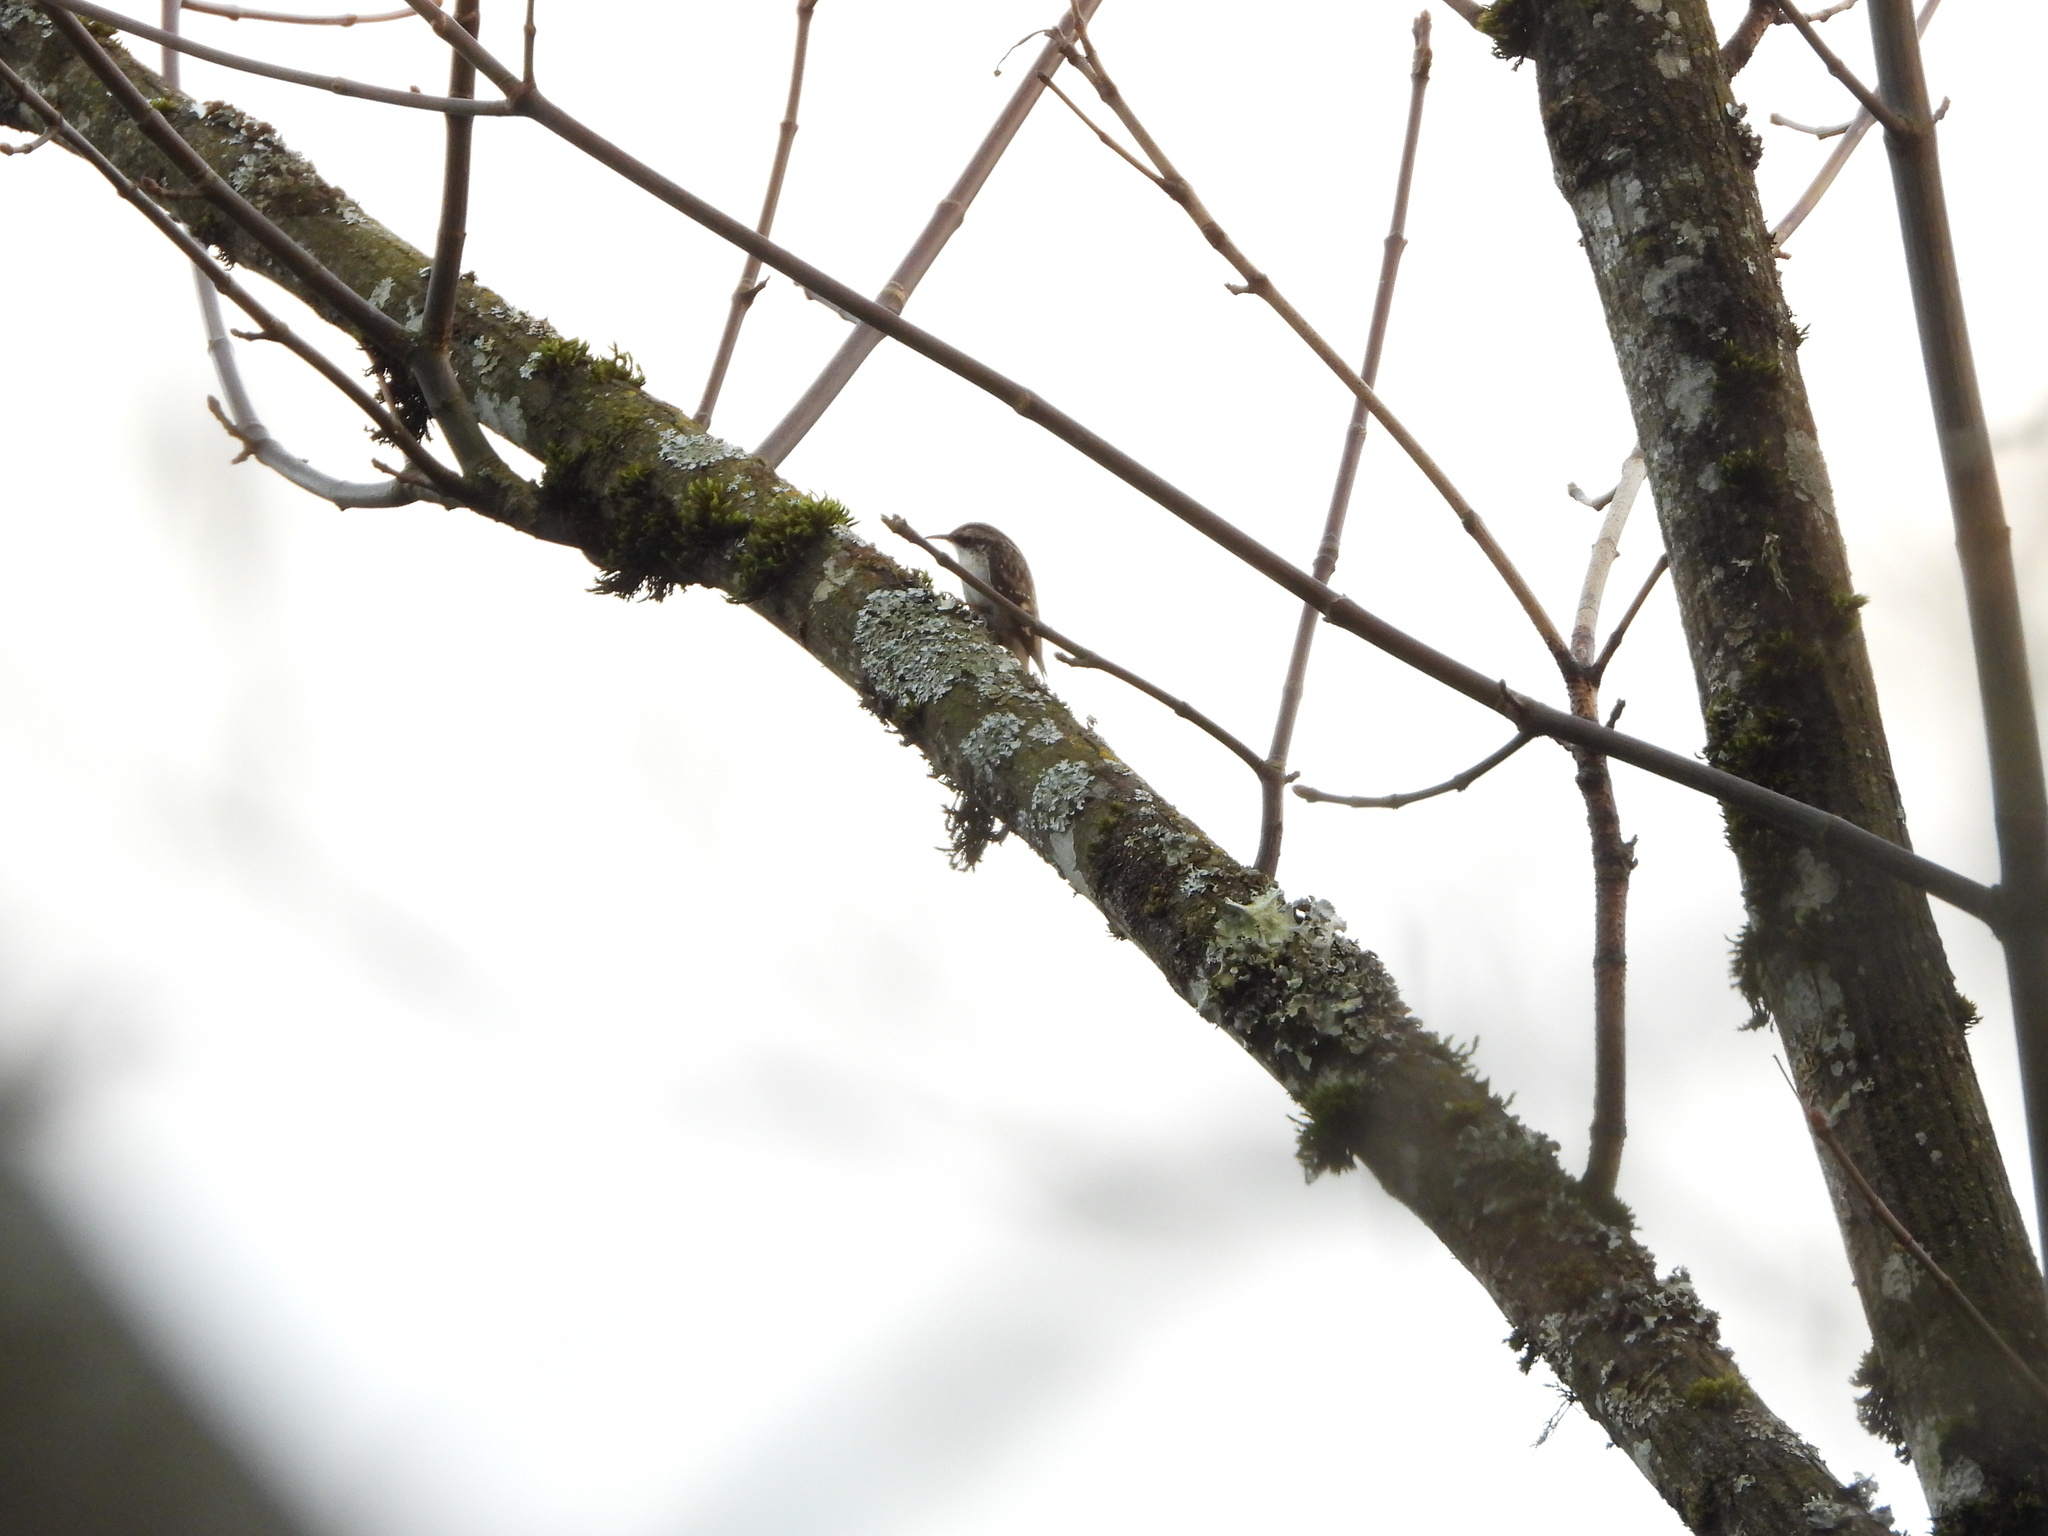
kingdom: Animalia
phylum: Chordata
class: Aves
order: Passeriformes
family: Certhiidae
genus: Certhia
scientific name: Certhia americana
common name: Brown creeper
